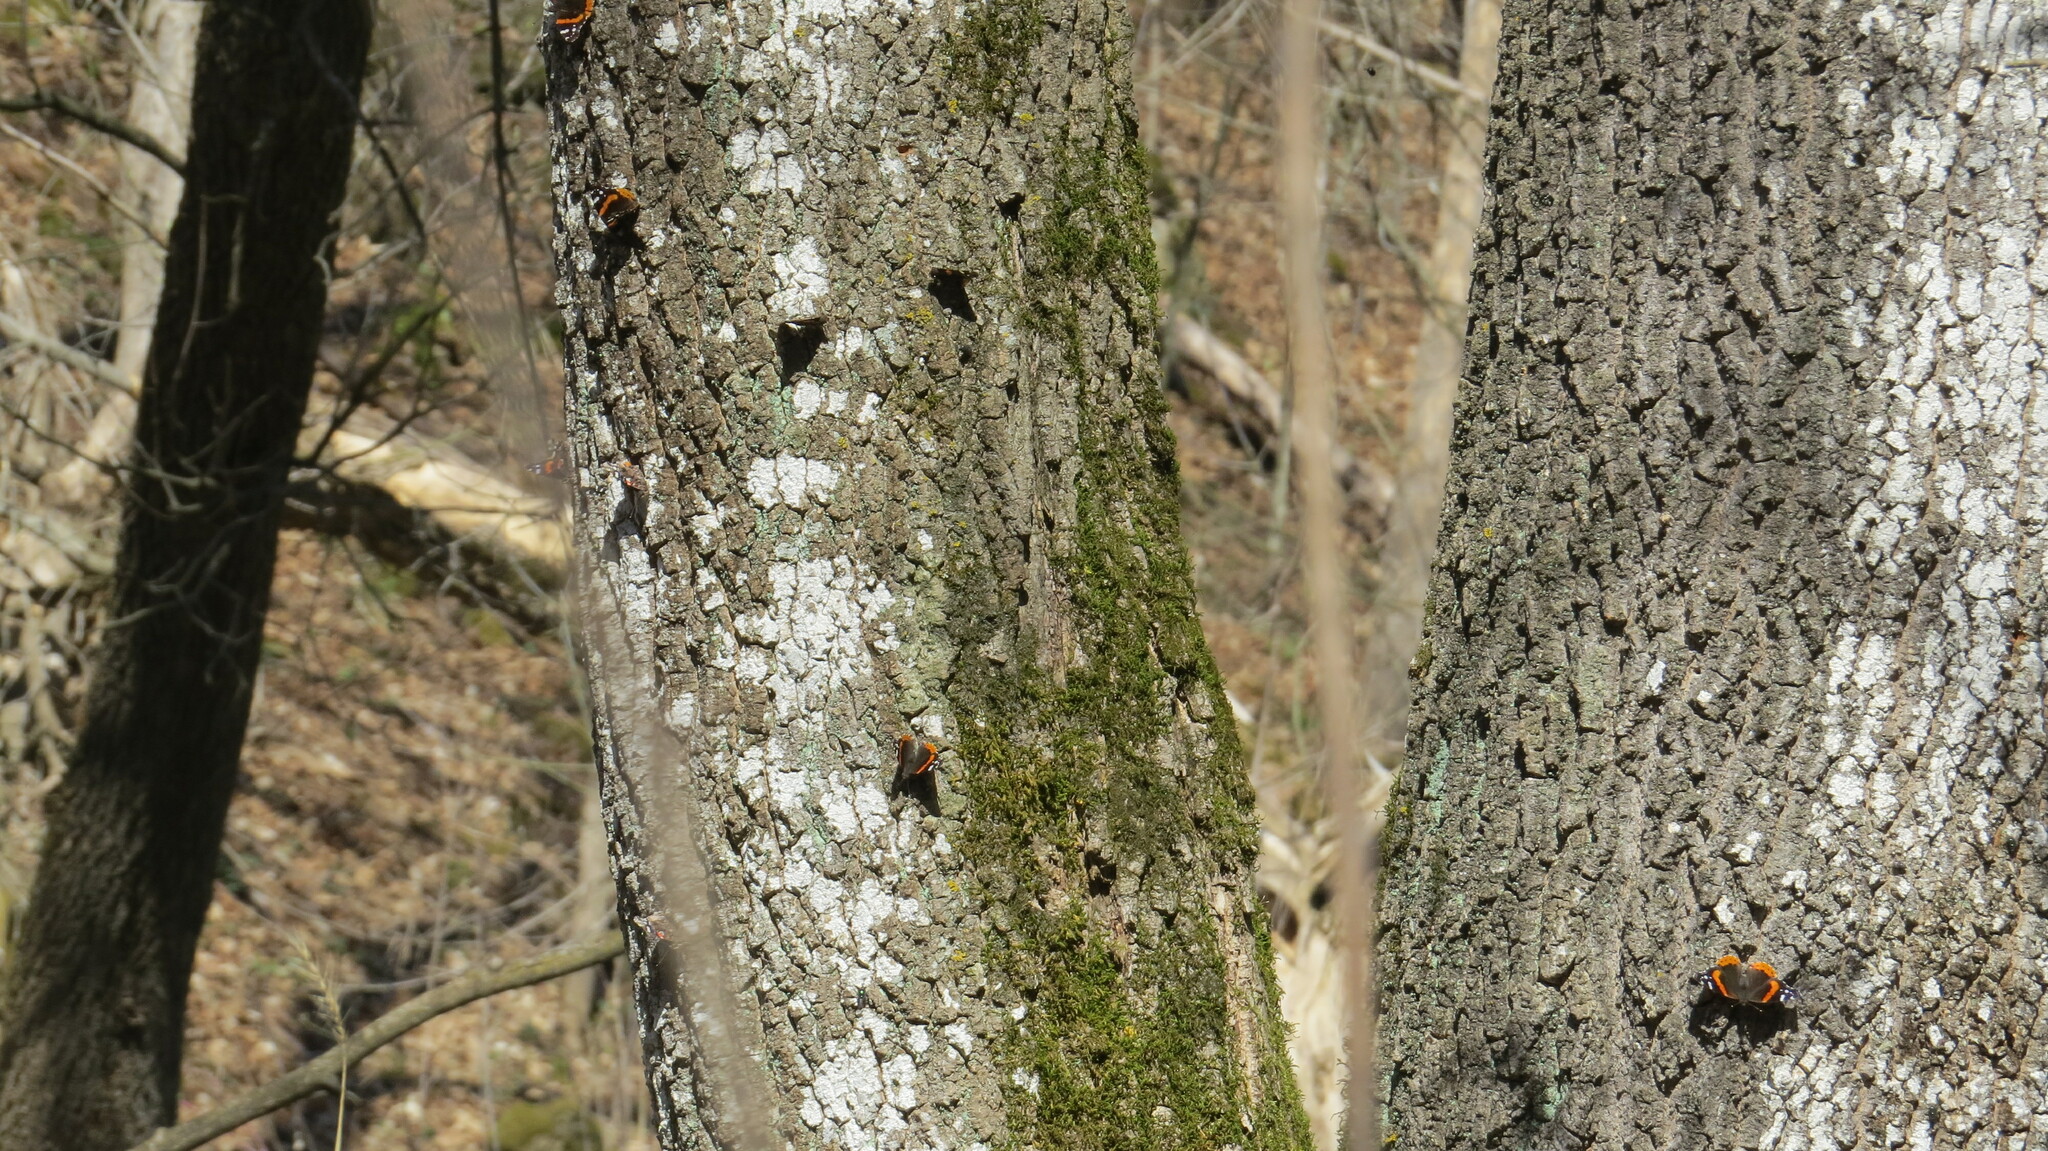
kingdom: Animalia
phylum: Arthropoda
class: Insecta
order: Lepidoptera
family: Nymphalidae
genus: Vanessa
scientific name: Vanessa atalanta
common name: Red admiral
